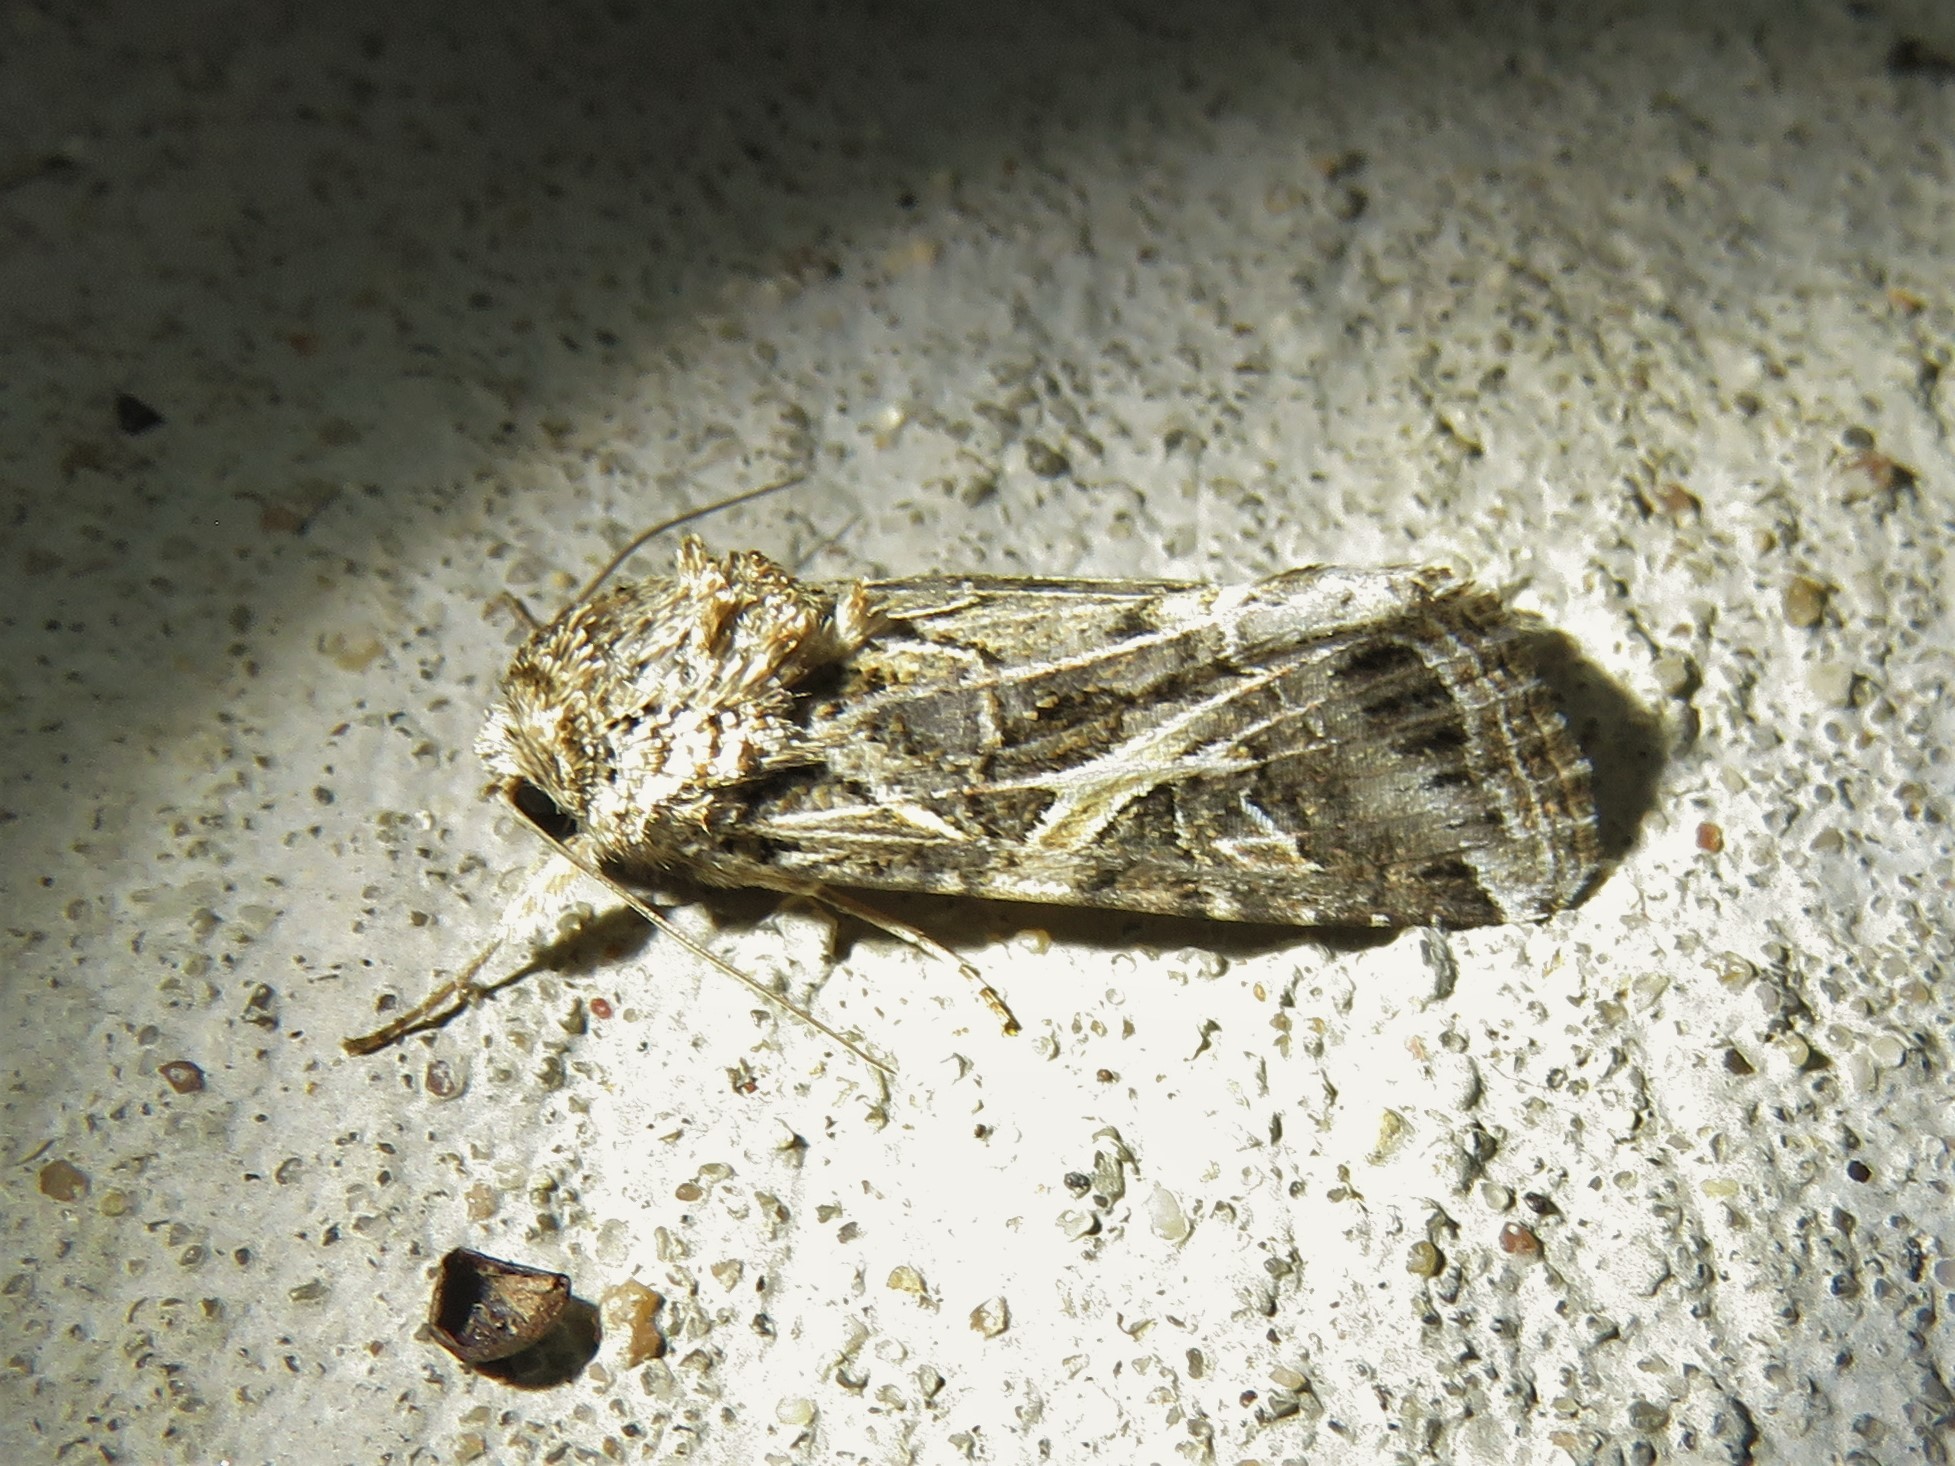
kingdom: Animalia
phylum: Arthropoda
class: Insecta
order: Lepidoptera
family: Noctuidae
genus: Spodoptera
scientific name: Spodoptera ornithogalli
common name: Yellow-striped armyworm
